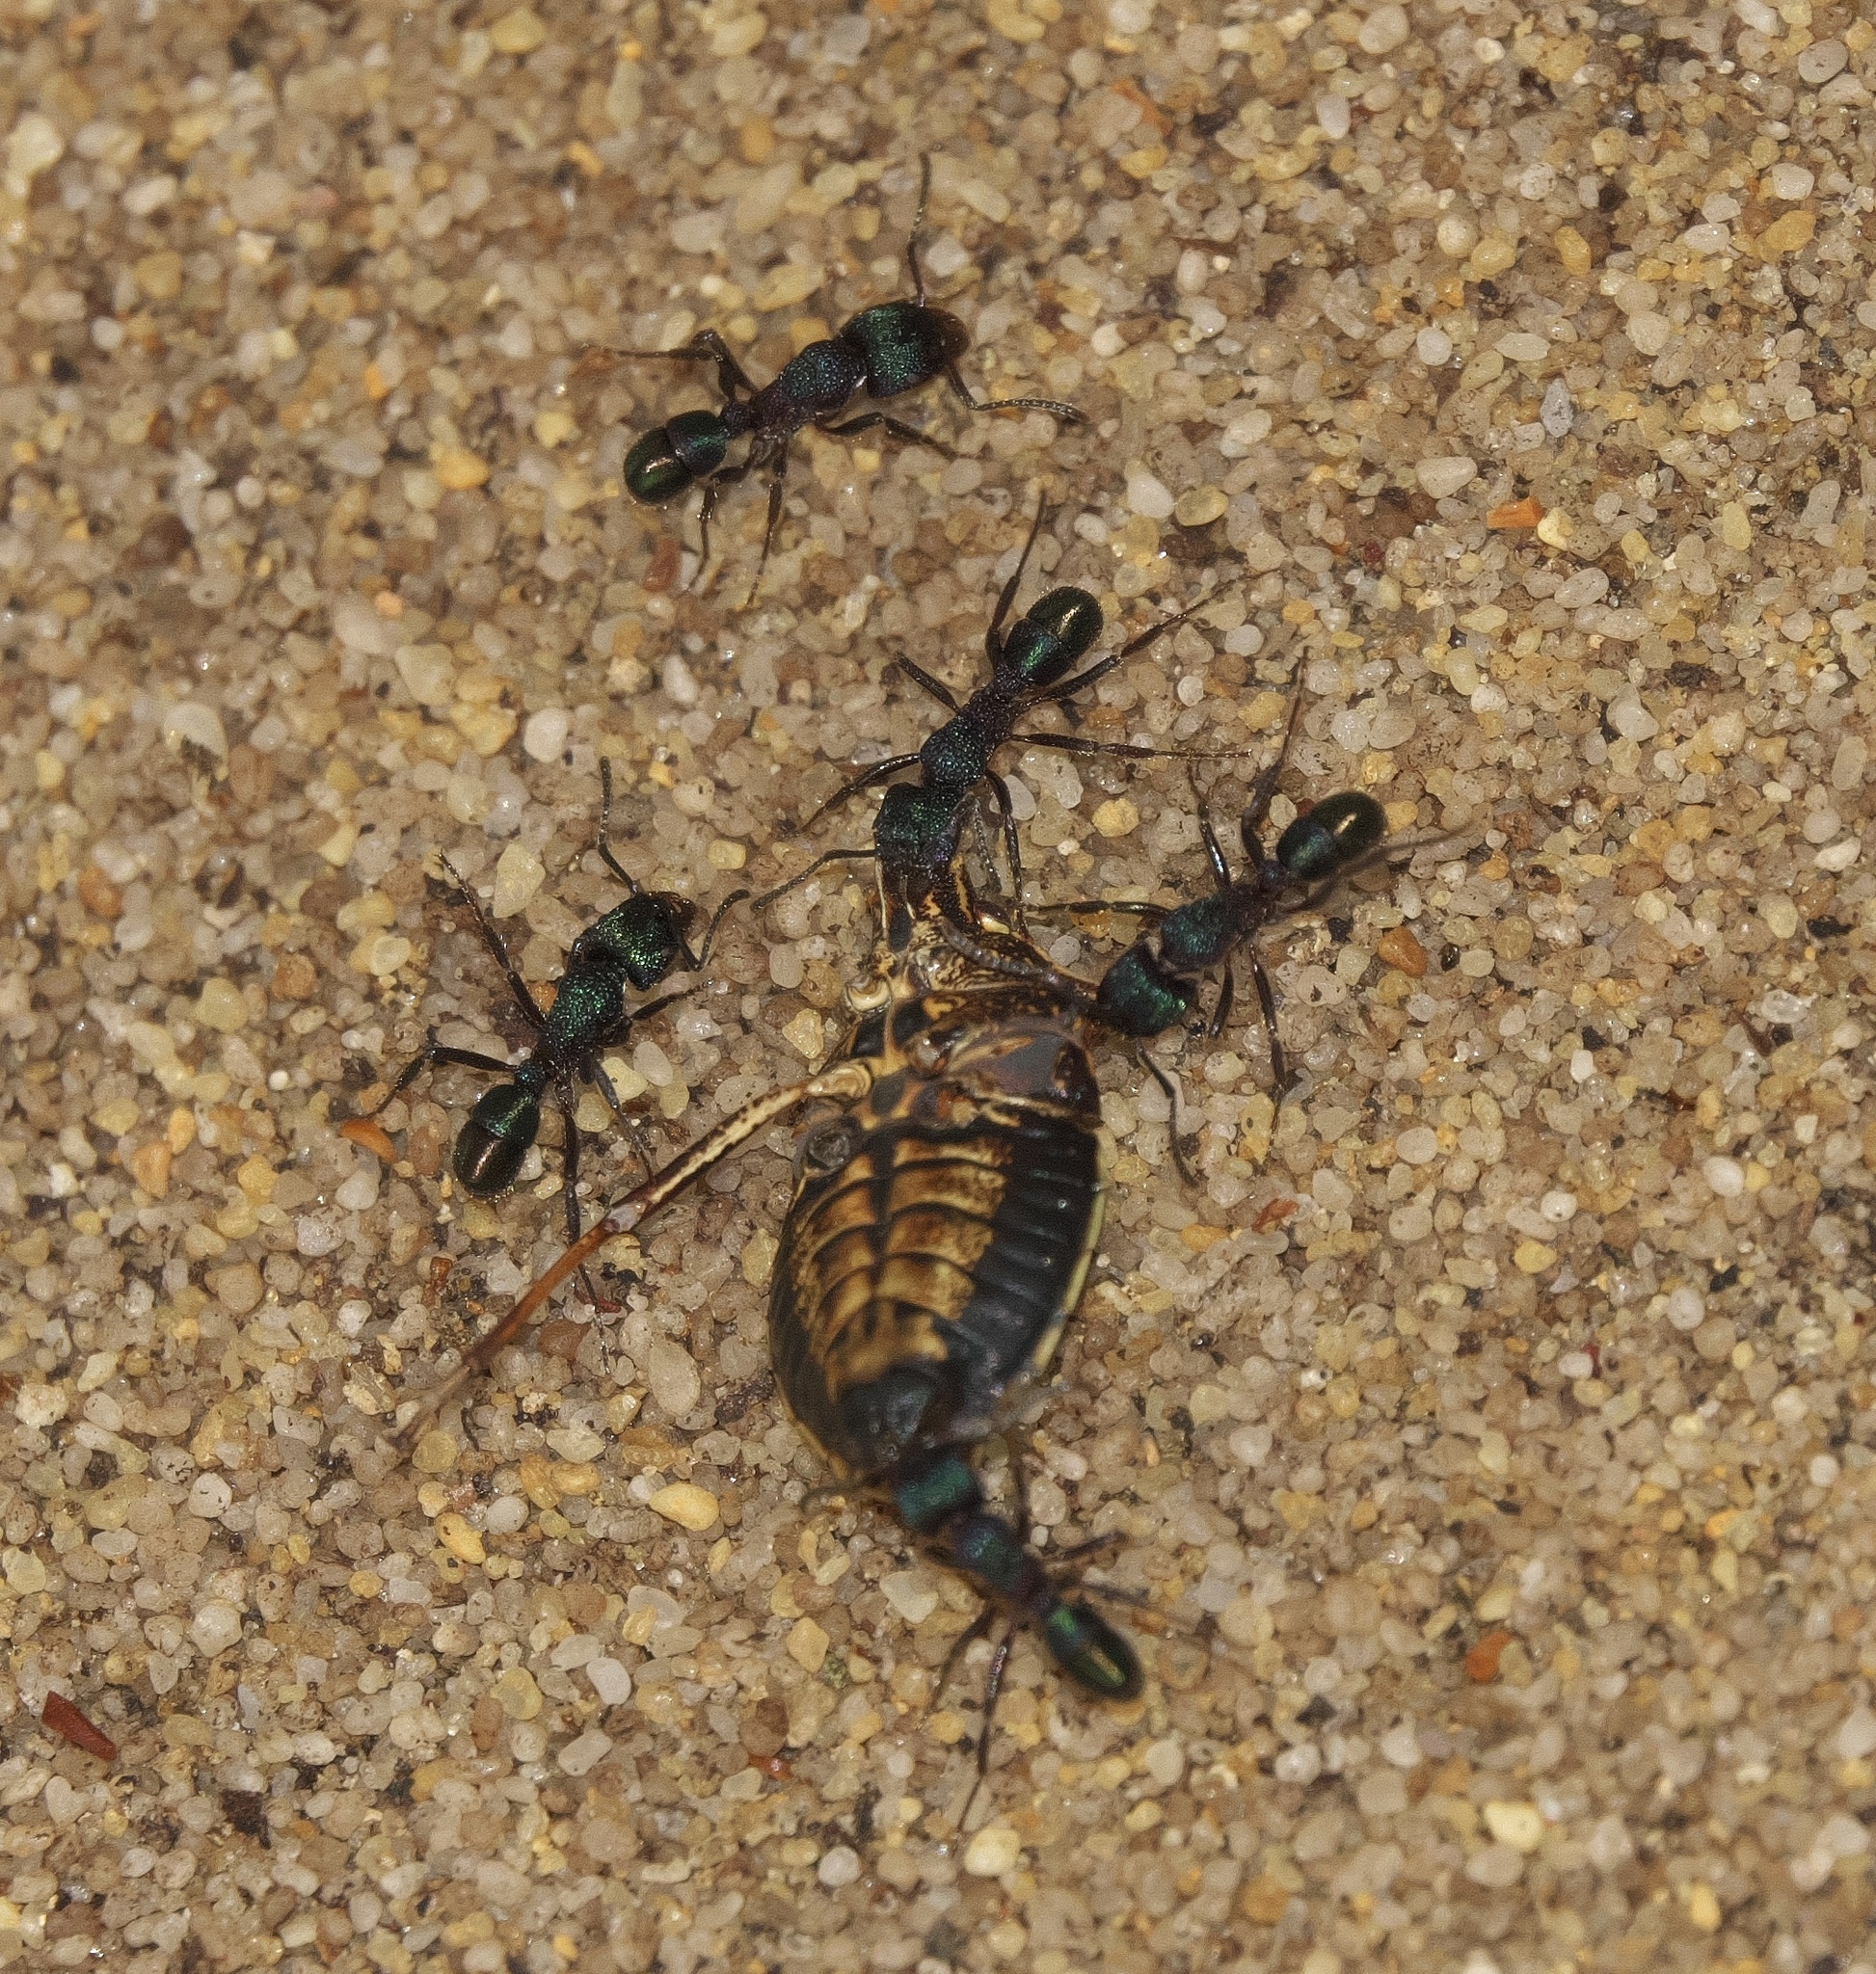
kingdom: Animalia
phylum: Arthropoda
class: Insecta
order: Hymenoptera
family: Formicidae
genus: Rhytidoponera
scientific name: Rhytidoponera metallica
